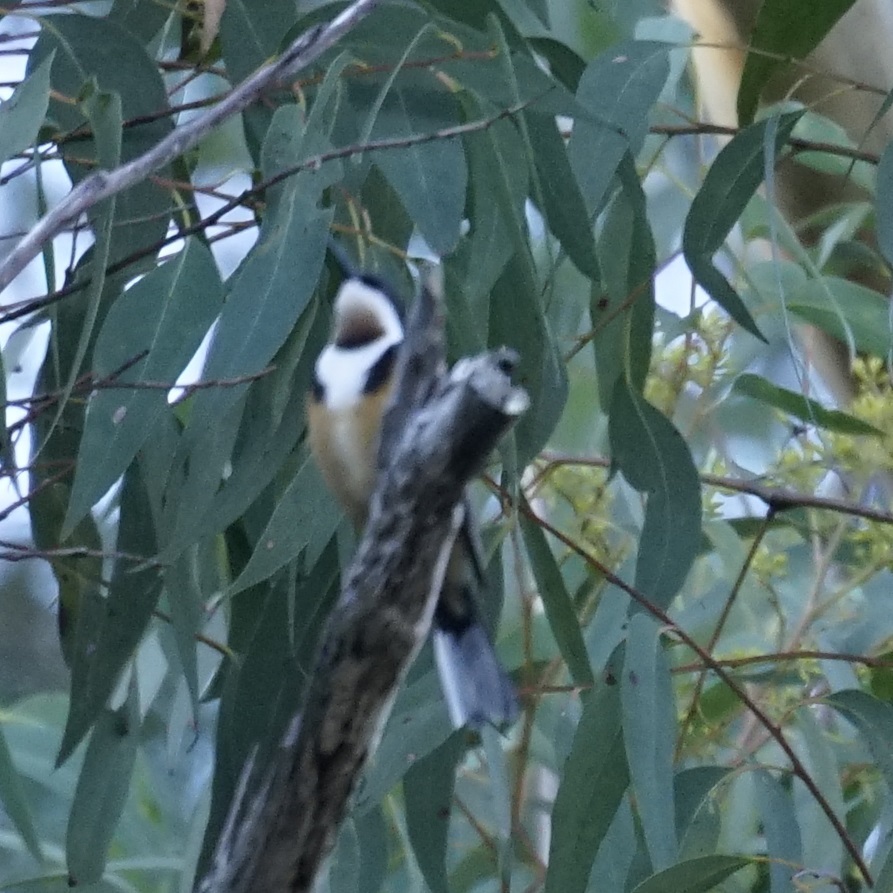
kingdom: Animalia
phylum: Chordata
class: Aves
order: Passeriformes
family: Meliphagidae
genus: Acanthorhynchus
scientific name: Acanthorhynchus tenuirostris
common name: Eastern spinebill
